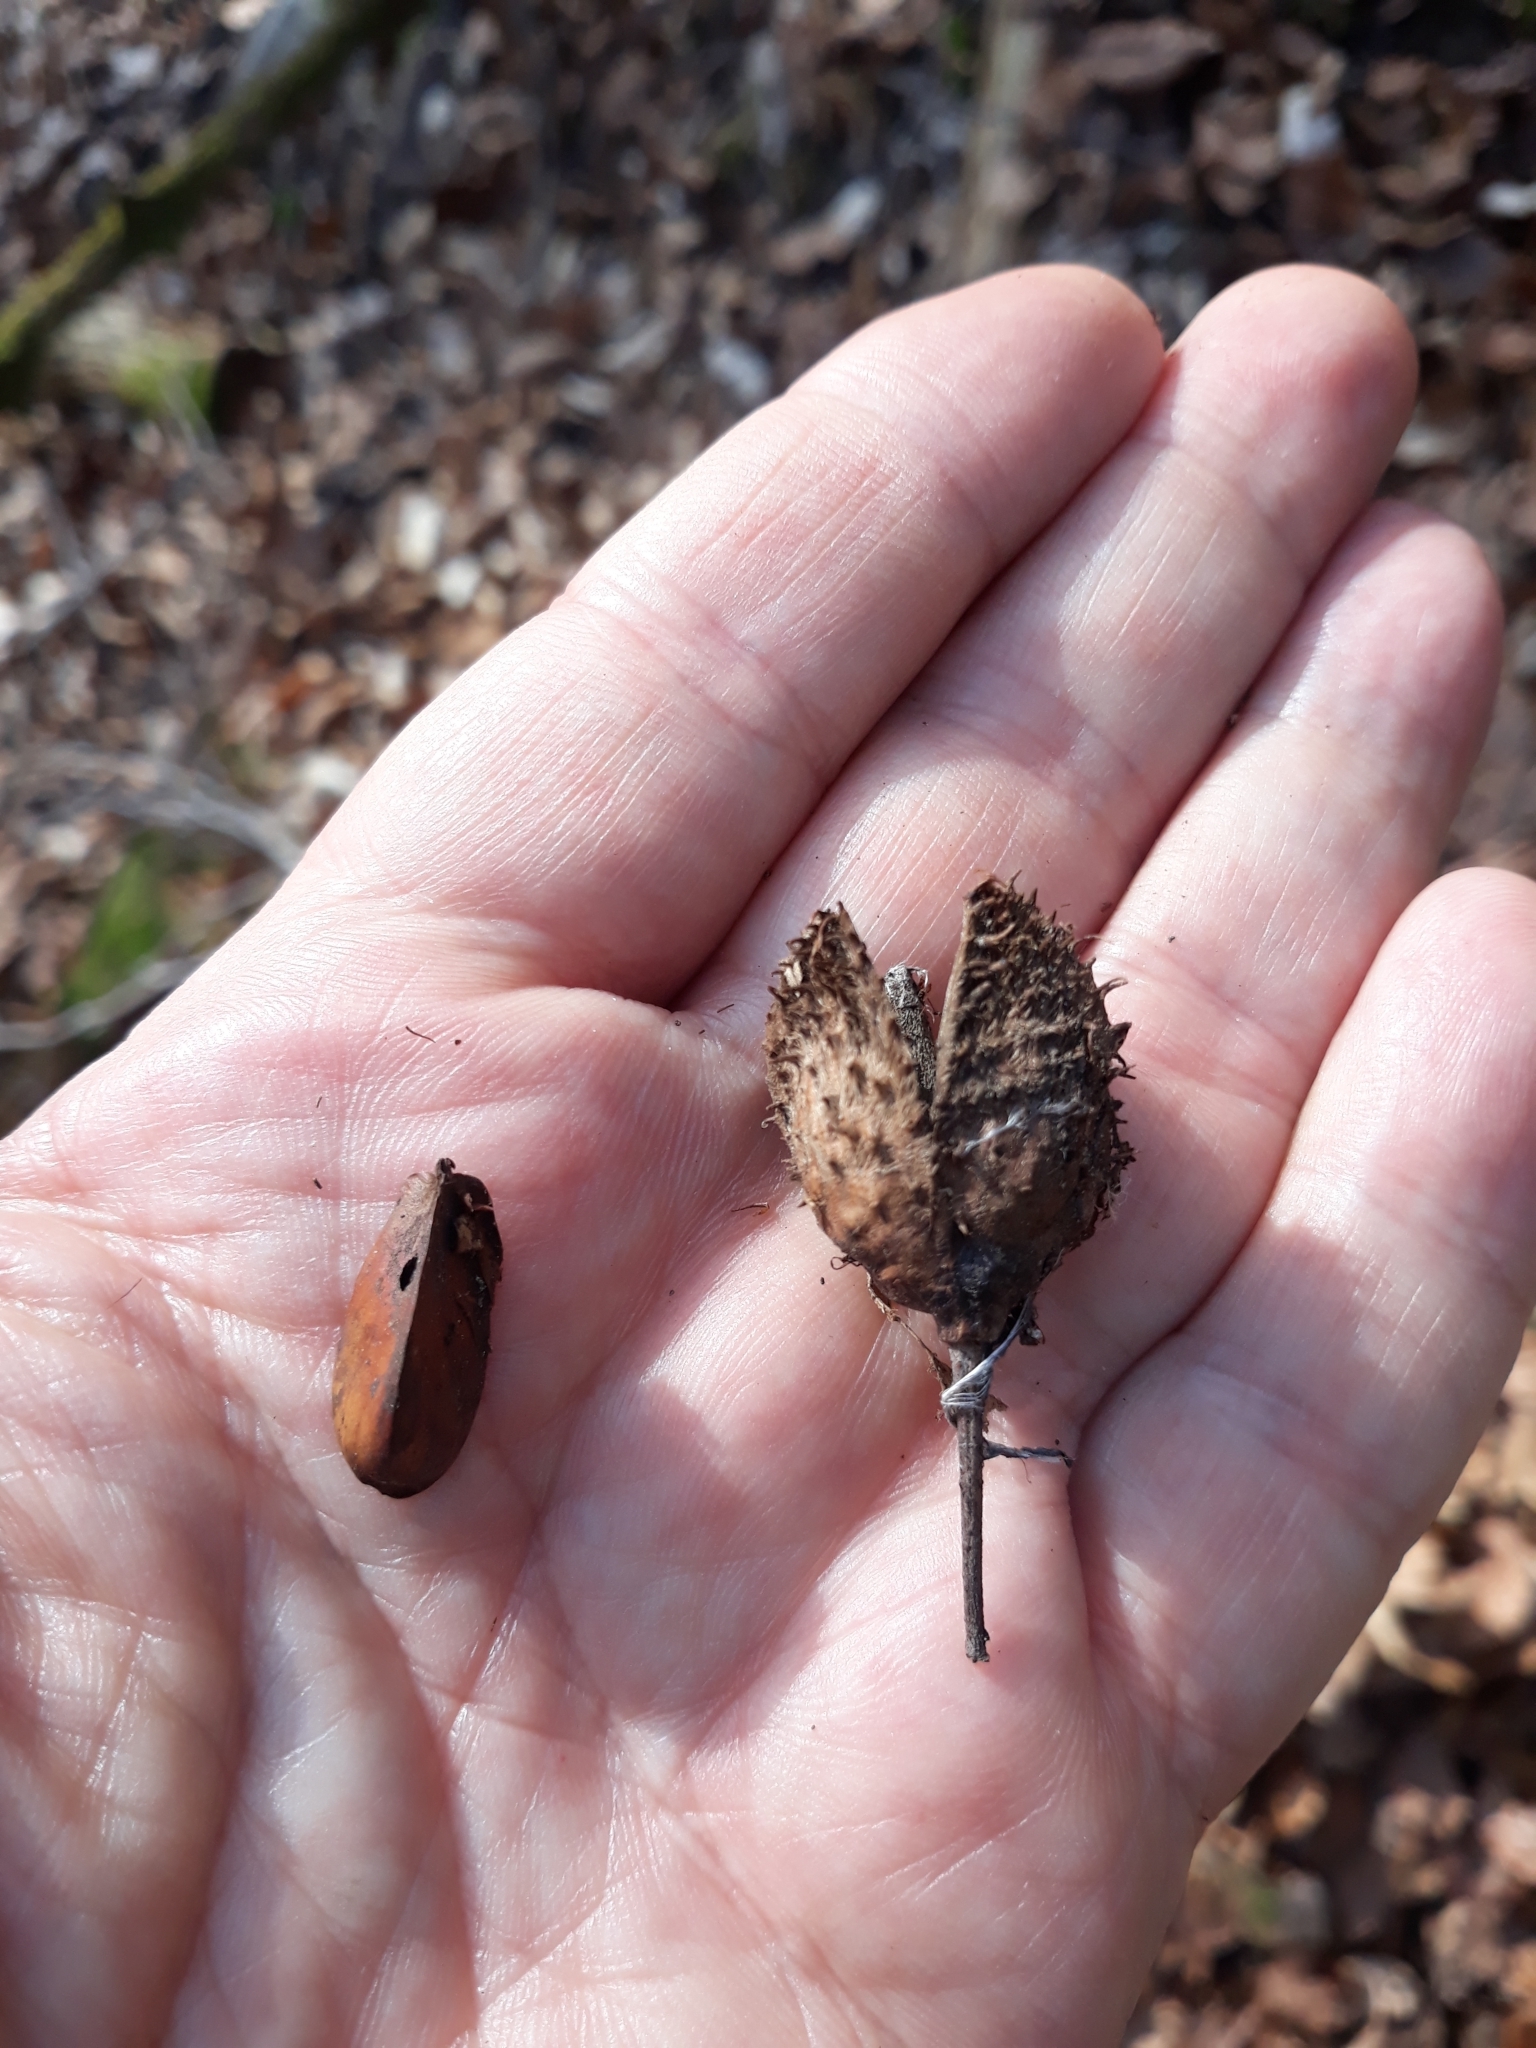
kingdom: Plantae
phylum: Tracheophyta
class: Magnoliopsida
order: Fagales
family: Fagaceae
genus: Fagus
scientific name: Fagus sylvatica
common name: Beech
